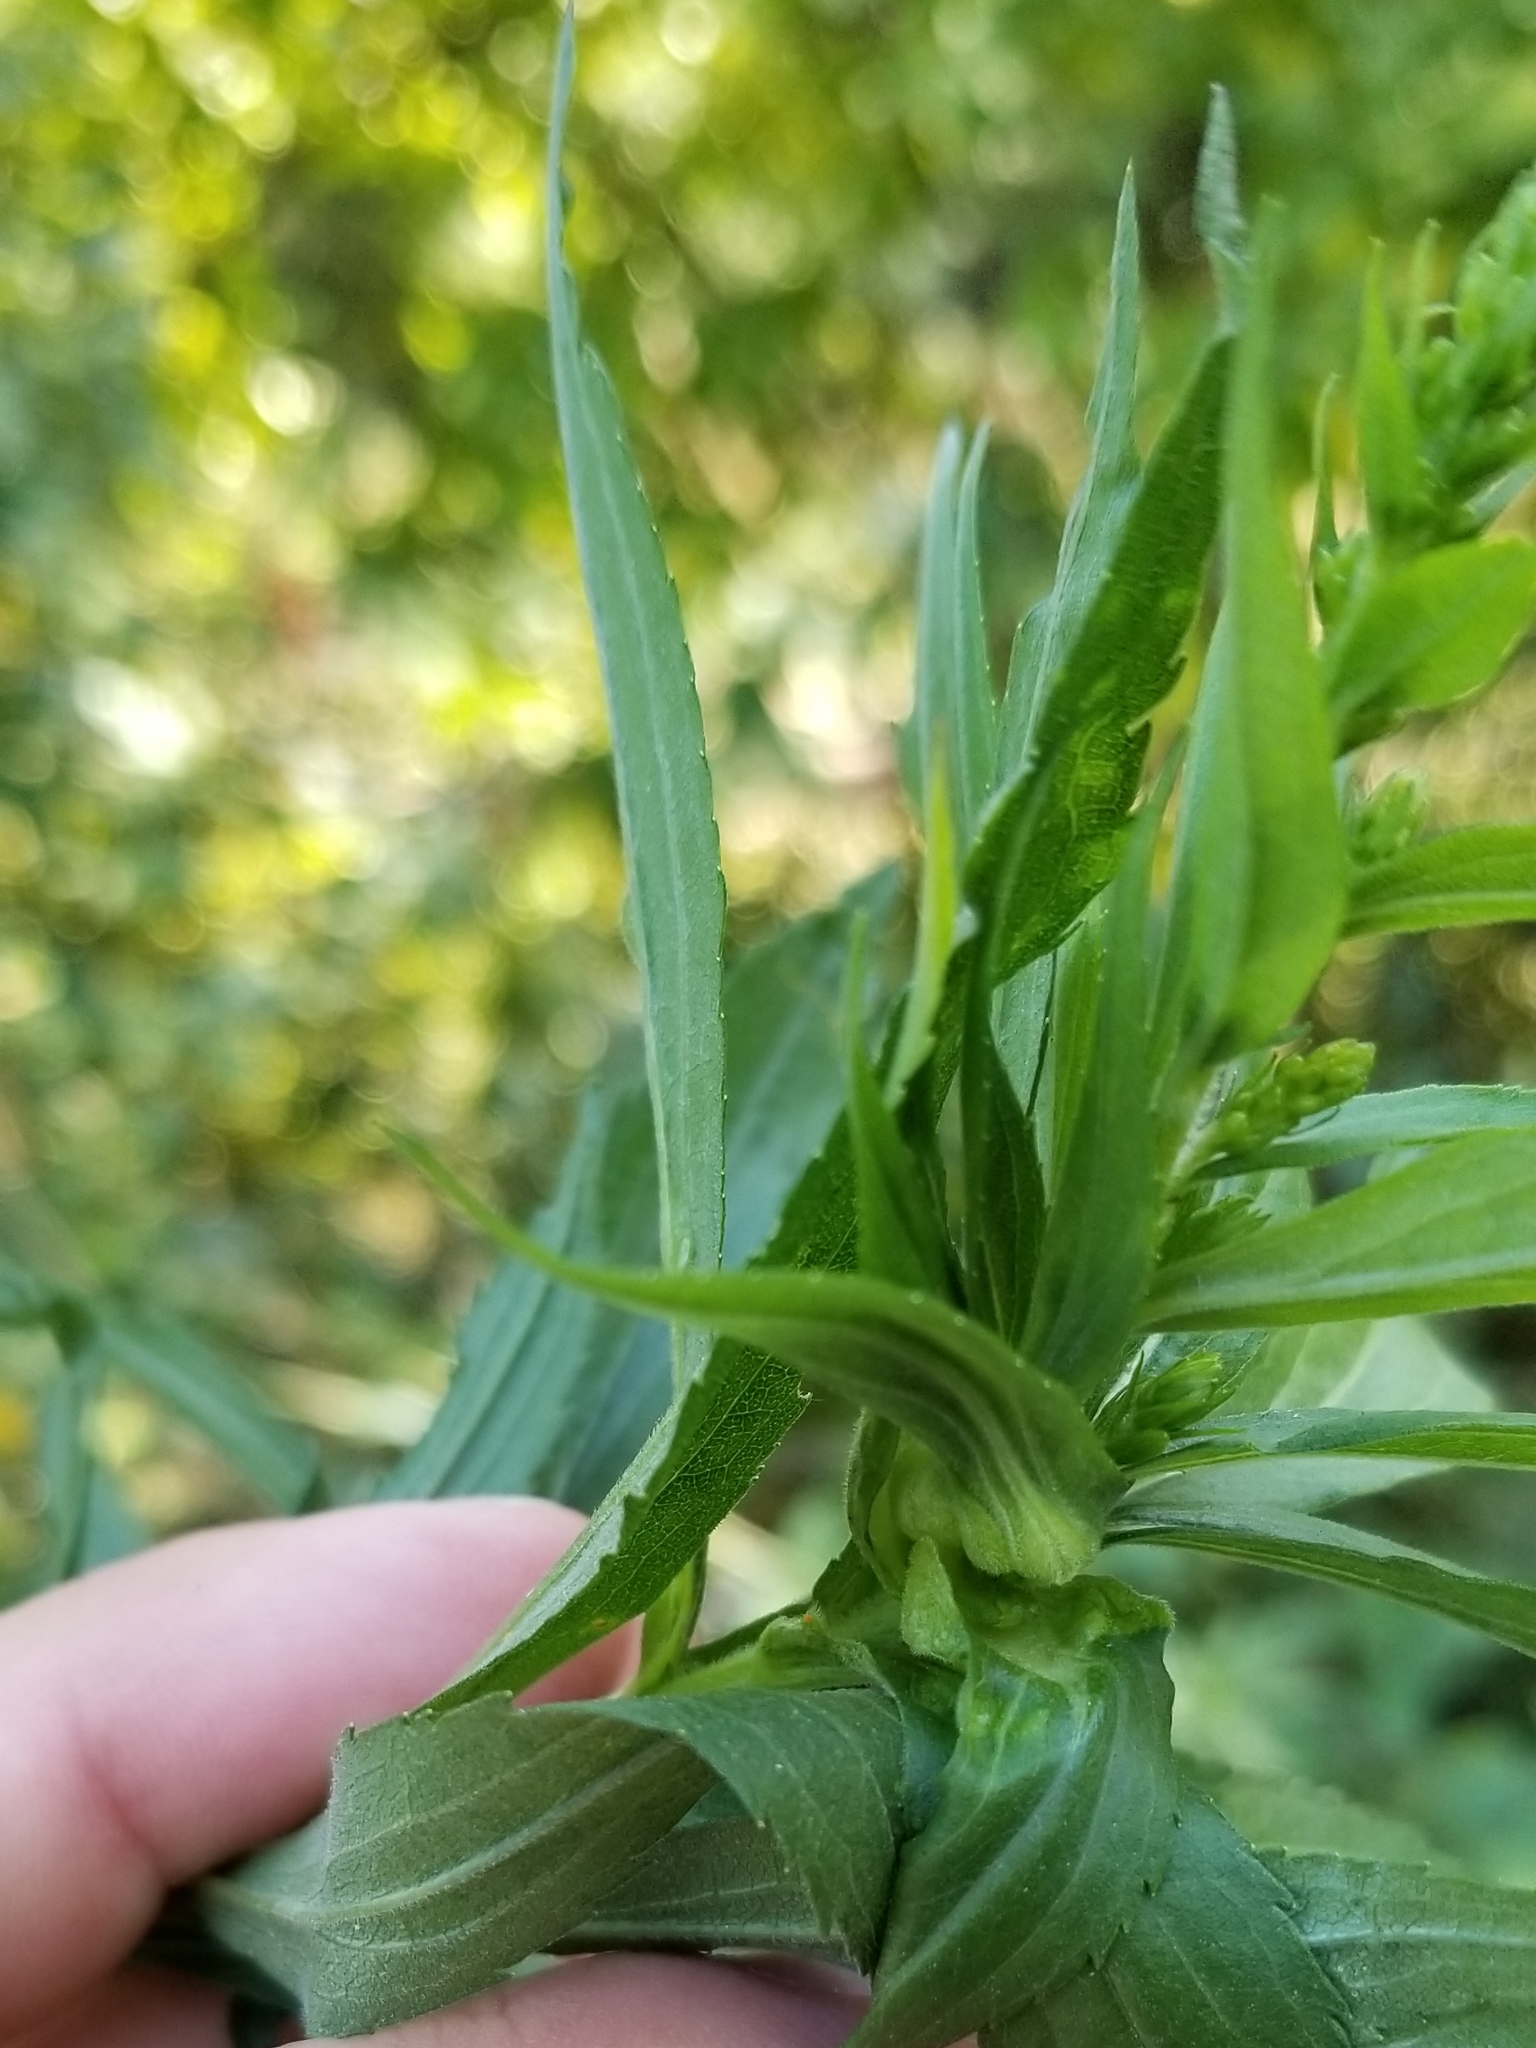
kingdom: Animalia
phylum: Arthropoda
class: Insecta
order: Diptera
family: Cecidomyiidae
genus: Dasineura
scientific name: Dasineura folliculi
